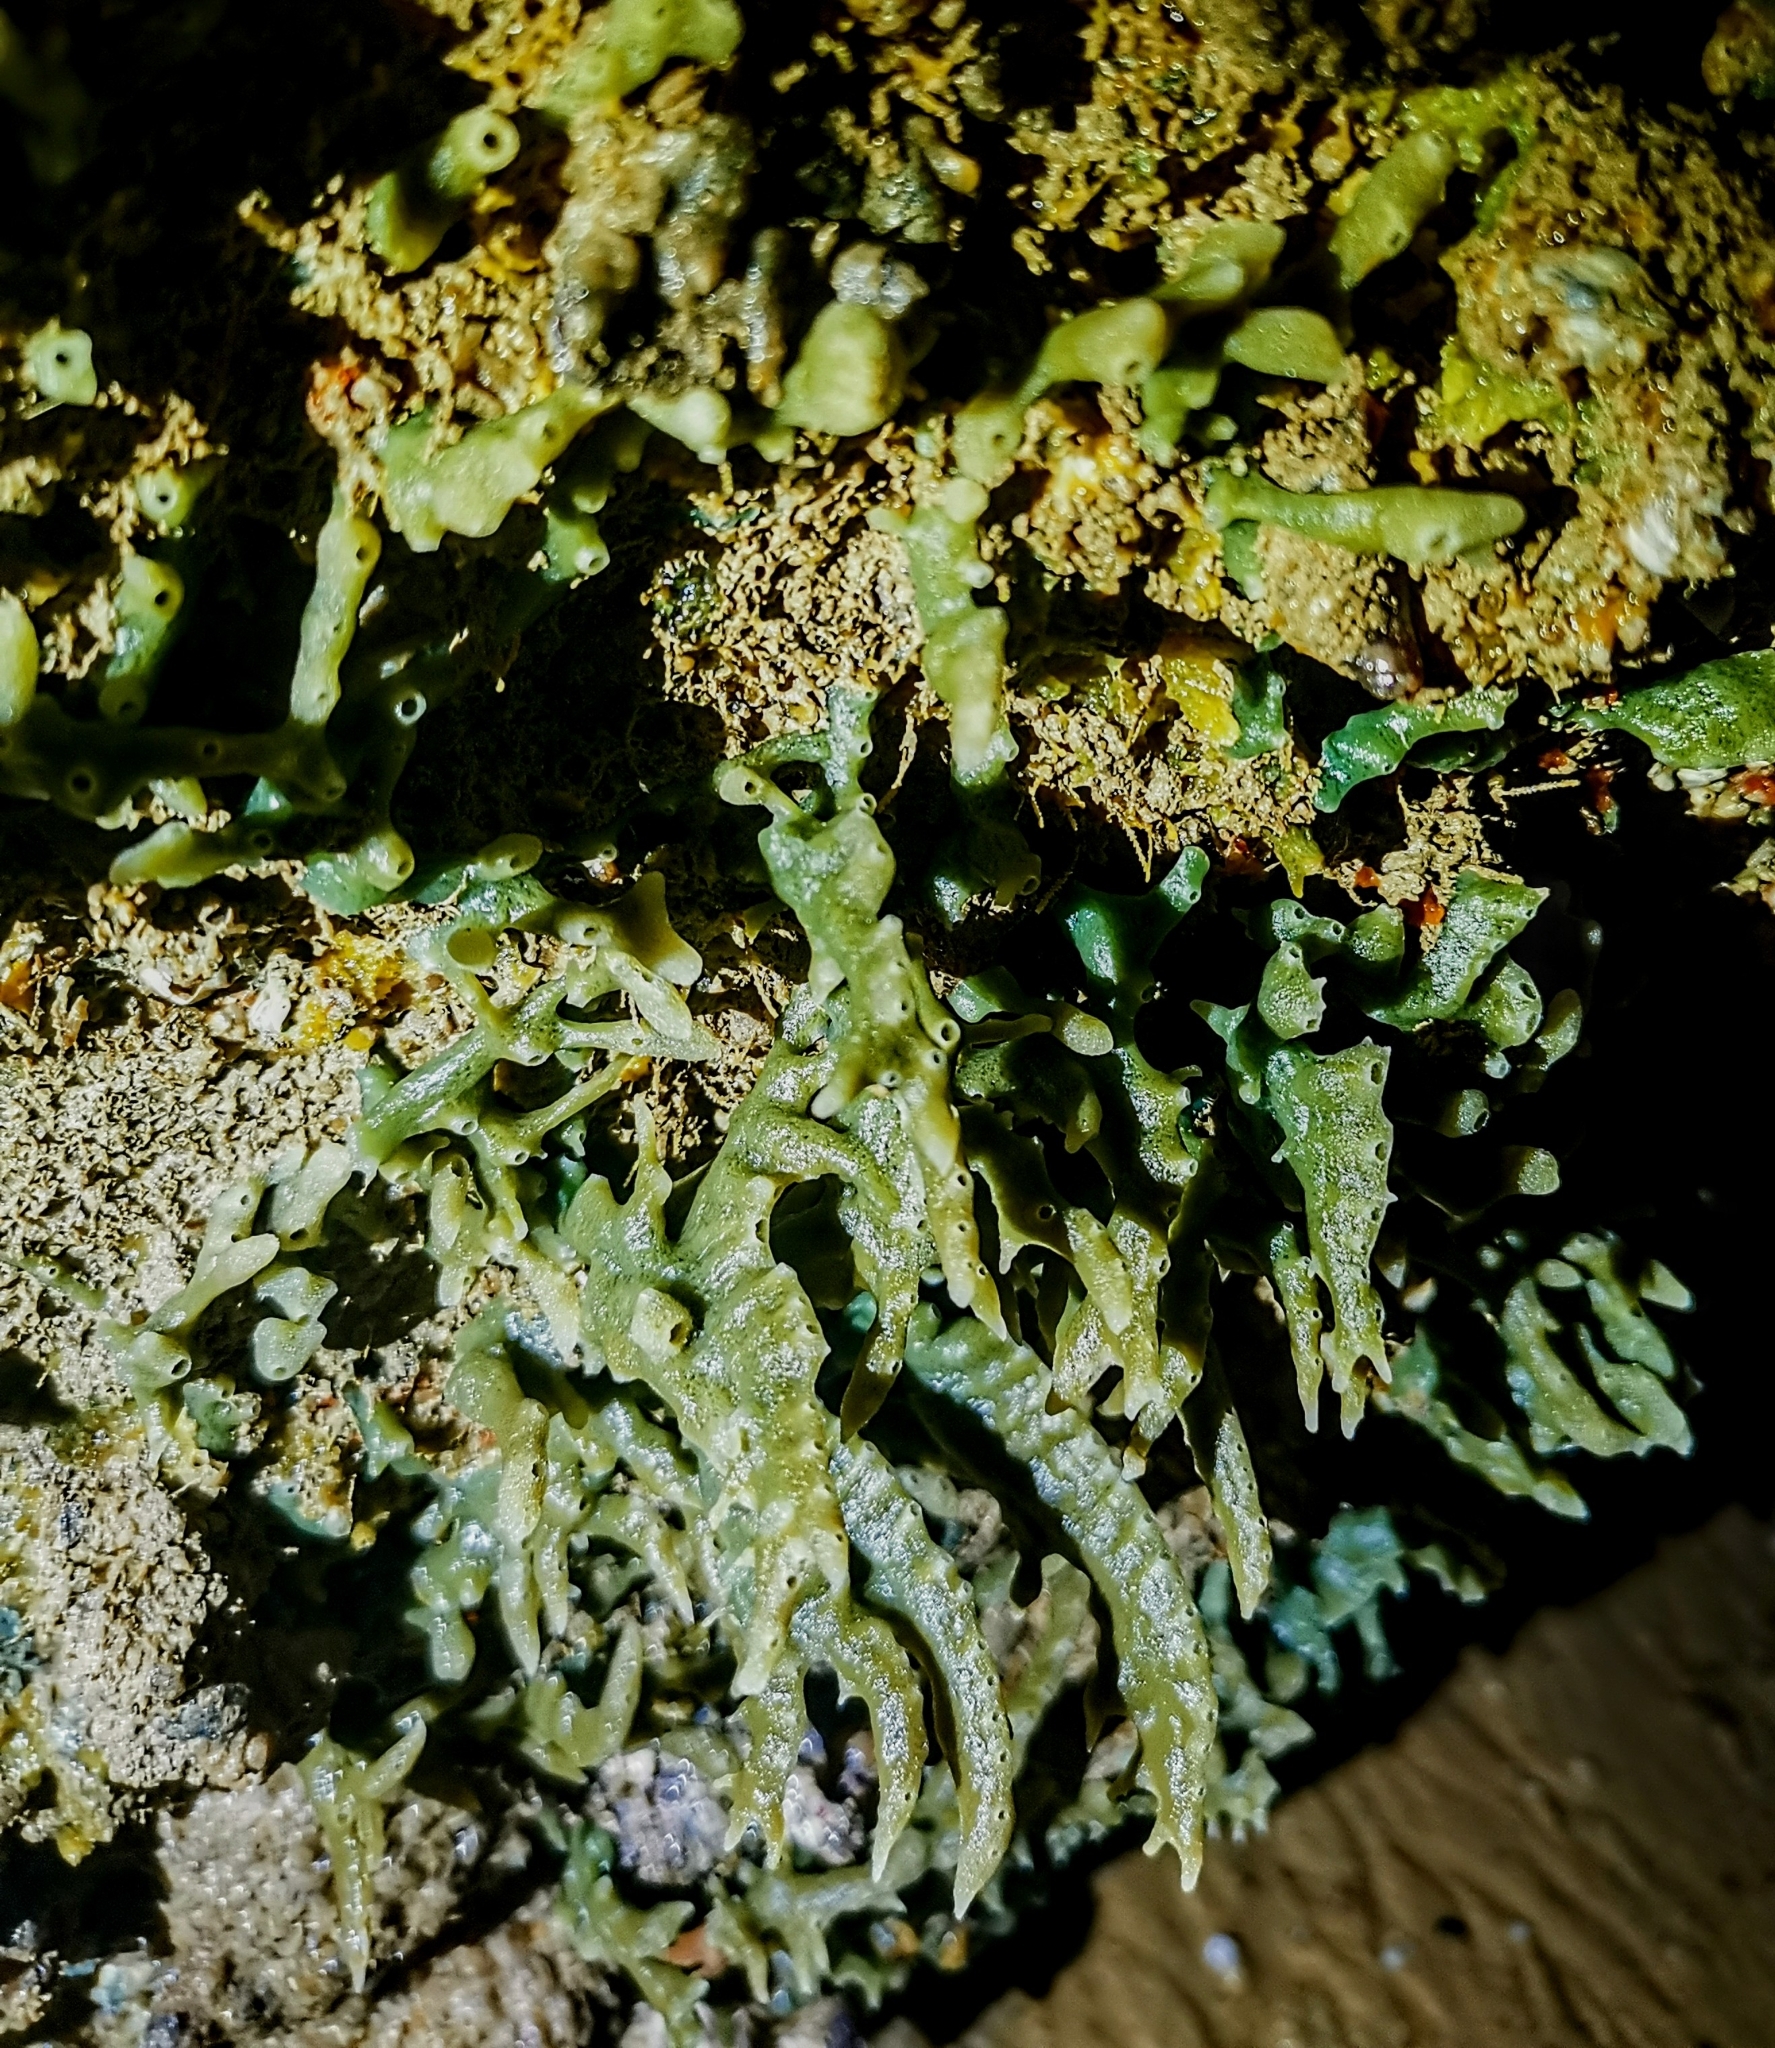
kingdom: Animalia
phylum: Porifera
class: Demospongiae
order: Poecilosclerida
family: Coelocarteriidae
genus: Coelocarteria
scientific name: Coelocarteria singaporensis
